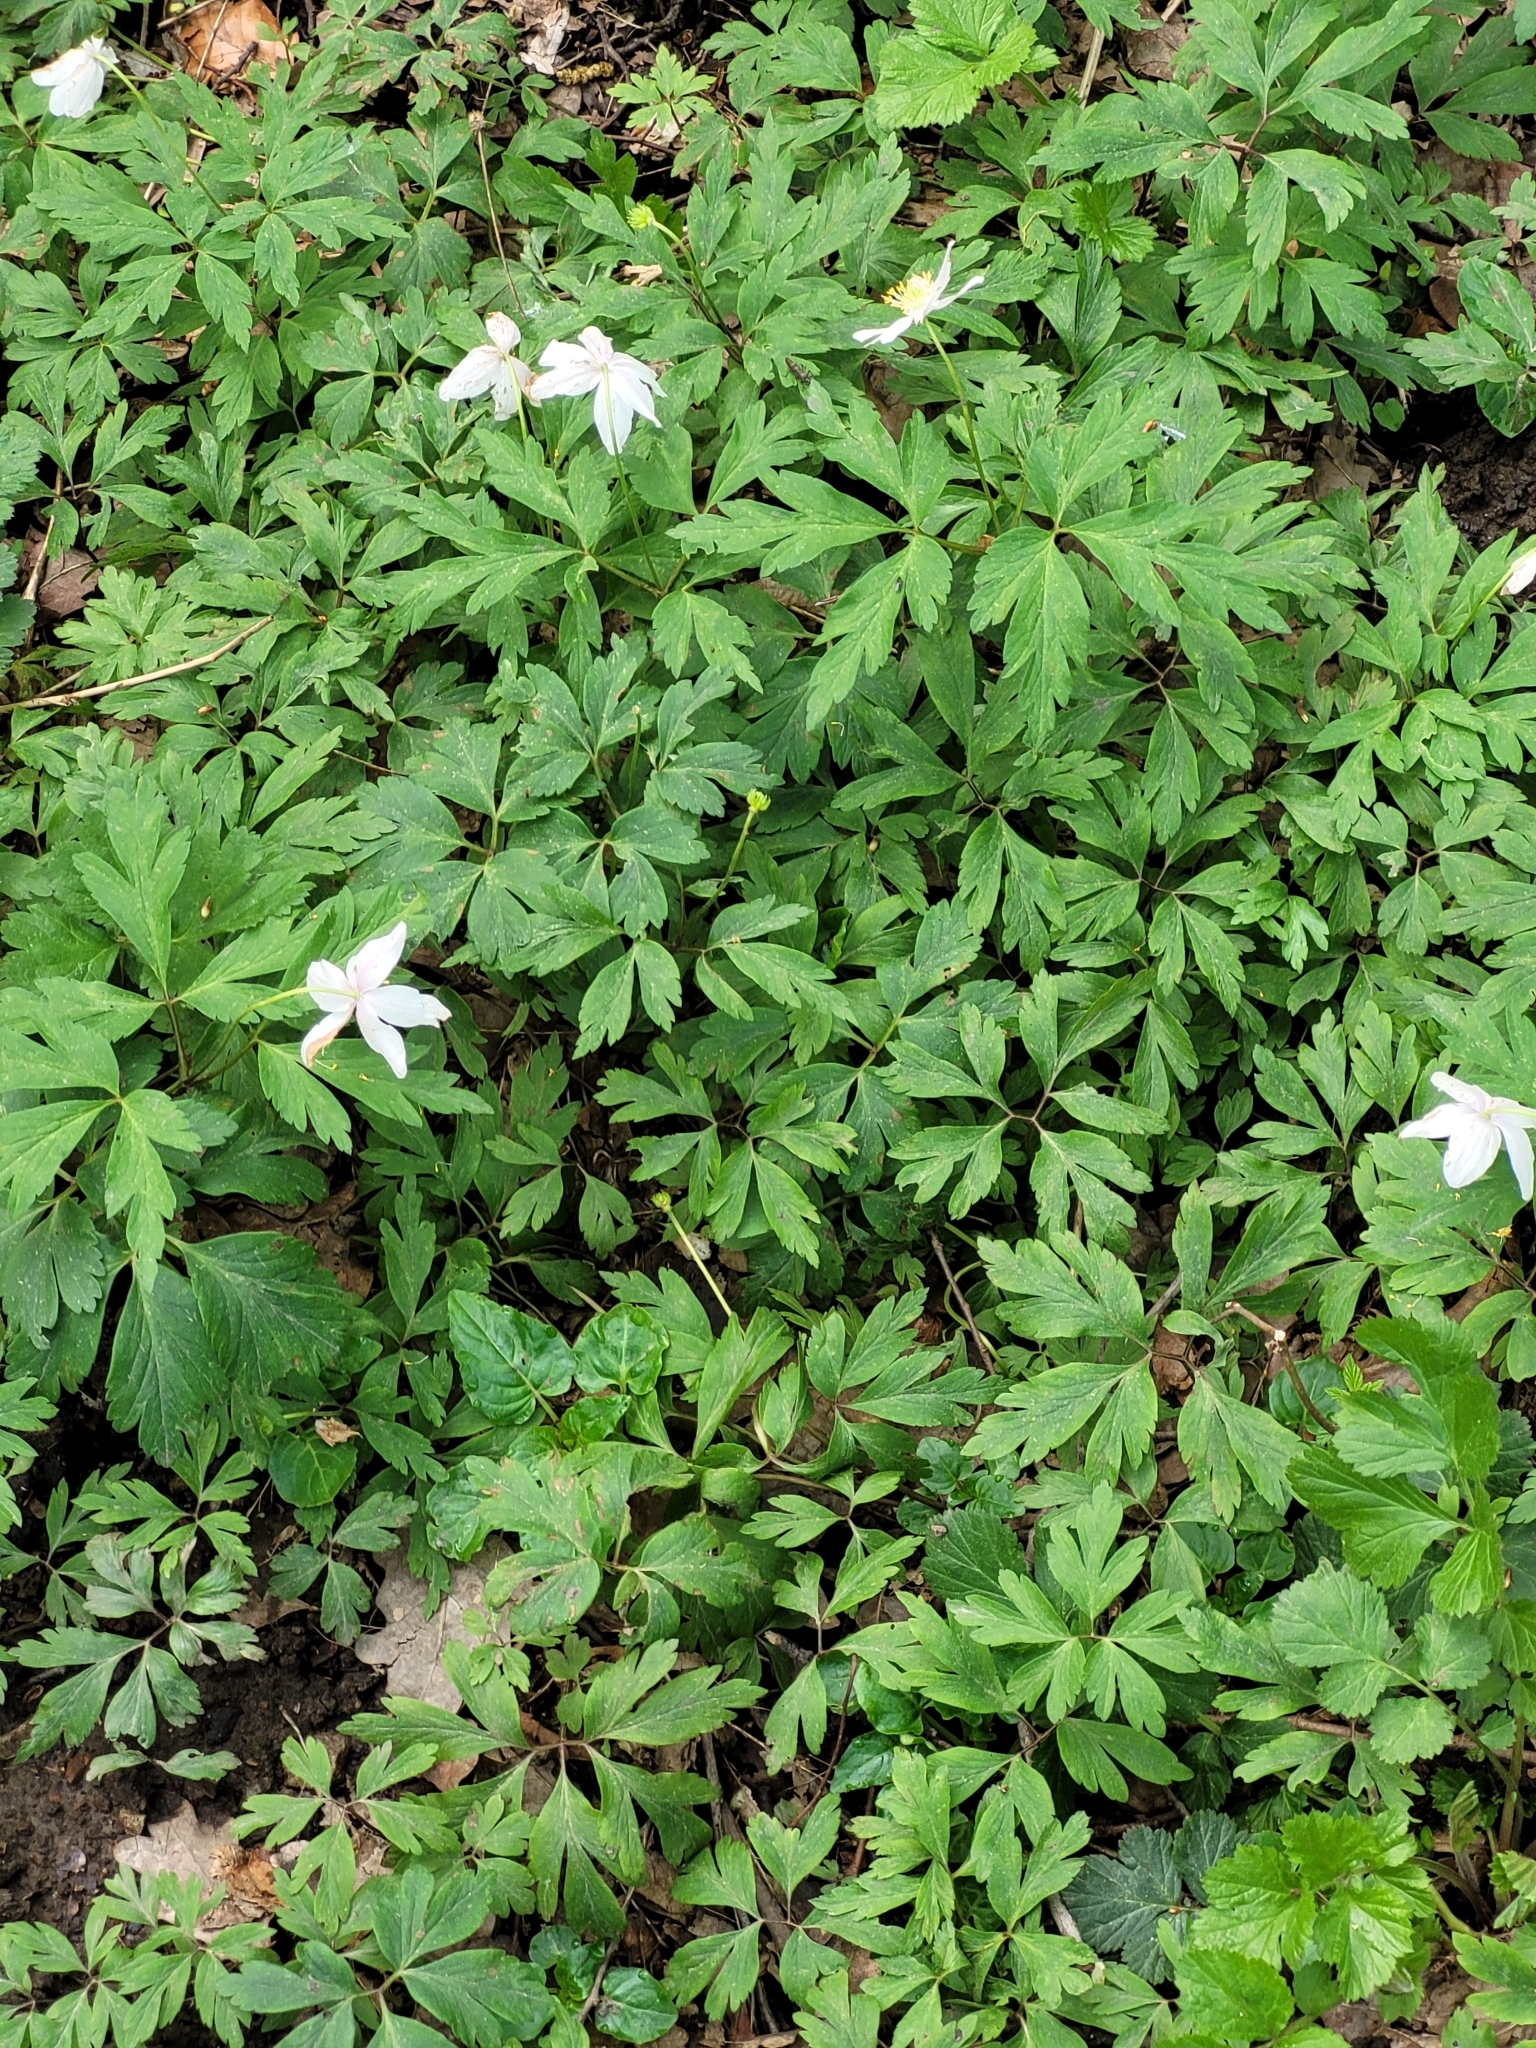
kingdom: Plantae
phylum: Tracheophyta
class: Magnoliopsida
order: Ranunculales
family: Ranunculaceae
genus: Anemone
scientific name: Anemone nemorosa
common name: Wood anemone
